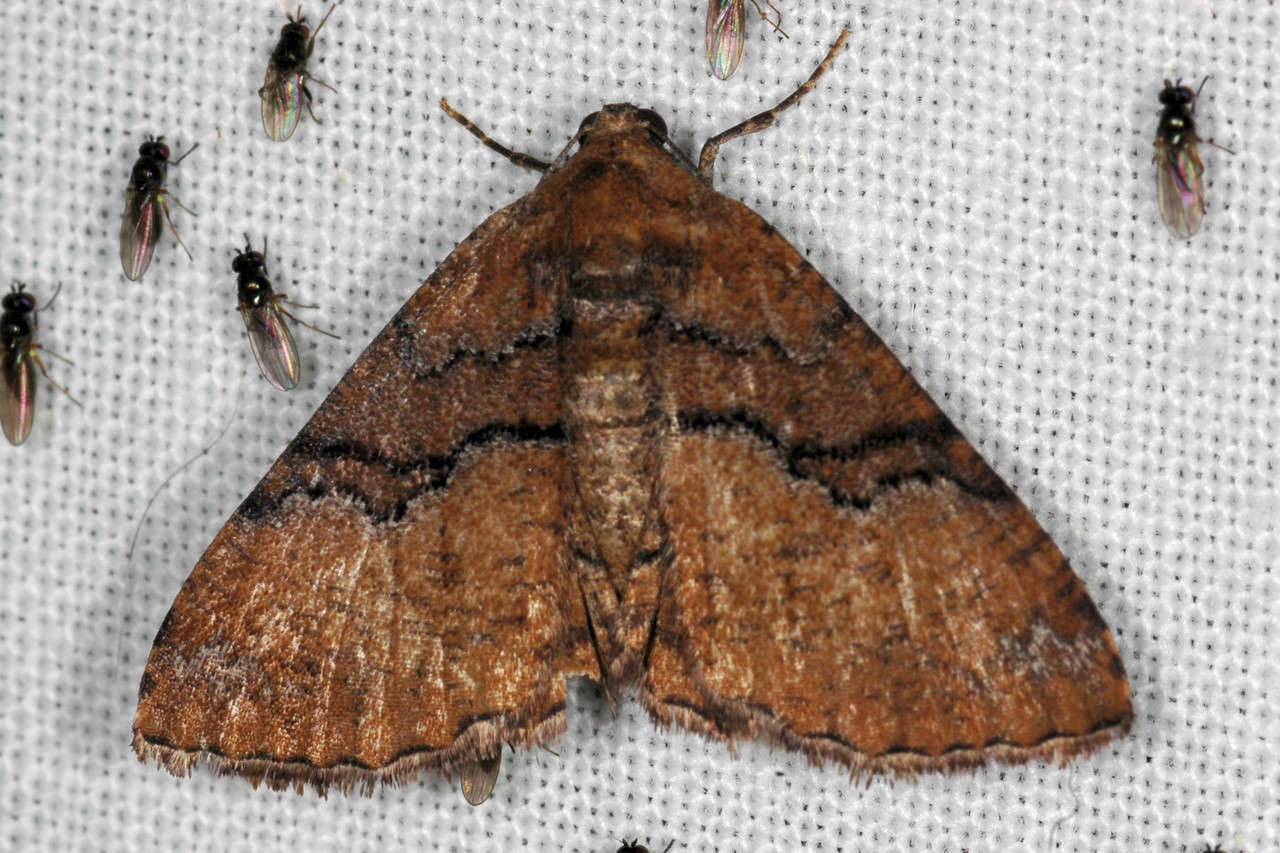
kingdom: Animalia
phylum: Arthropoda
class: Insecta
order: Lepidoptera
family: Geometridae
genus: Aporoctena
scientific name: Aporoctena
